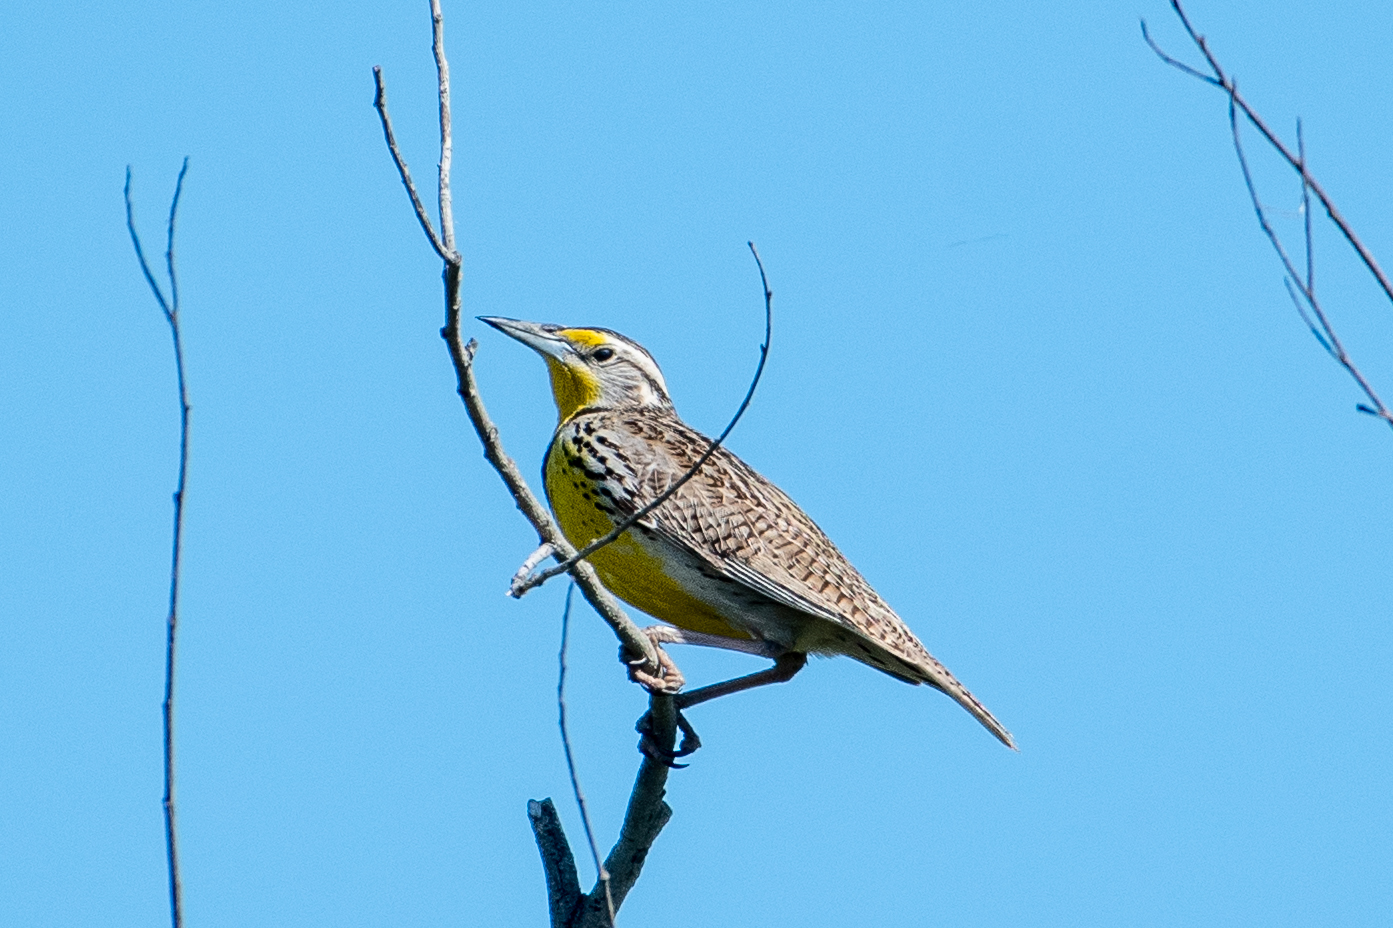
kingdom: Animalia
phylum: Chordata
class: Aves
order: Passeriformes
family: Icteridae
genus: Sturnella
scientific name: Sturnella neglecta
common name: Western meadowlark
